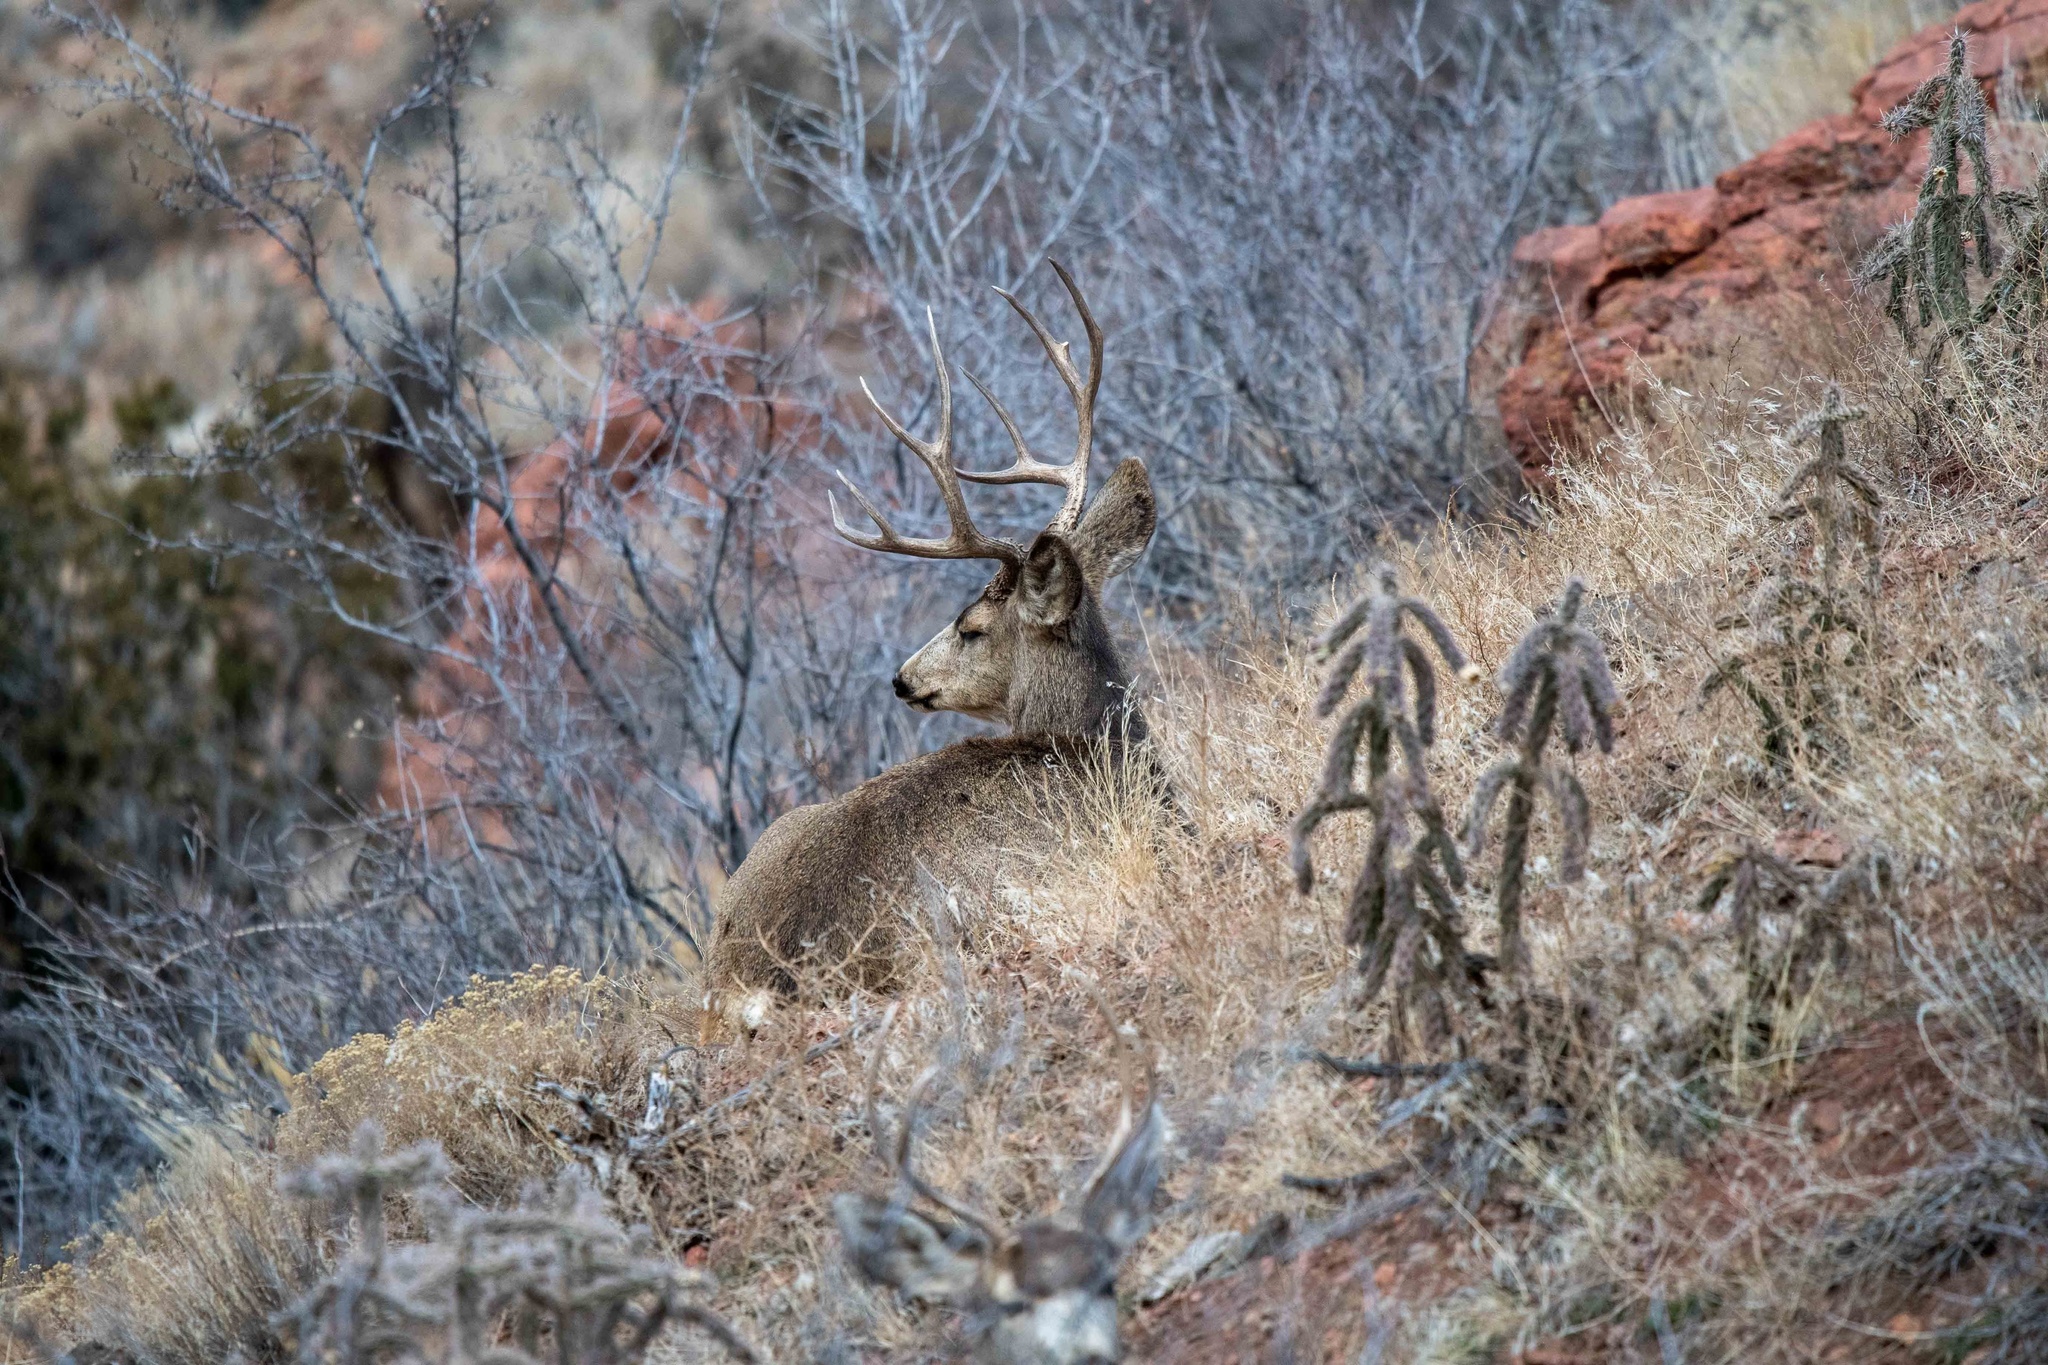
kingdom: Animalia
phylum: Chordata
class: Mammalia
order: Artiodactyla
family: Cervidae
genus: Odocoileus
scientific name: Odocoileus hemionus
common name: Mule deer
